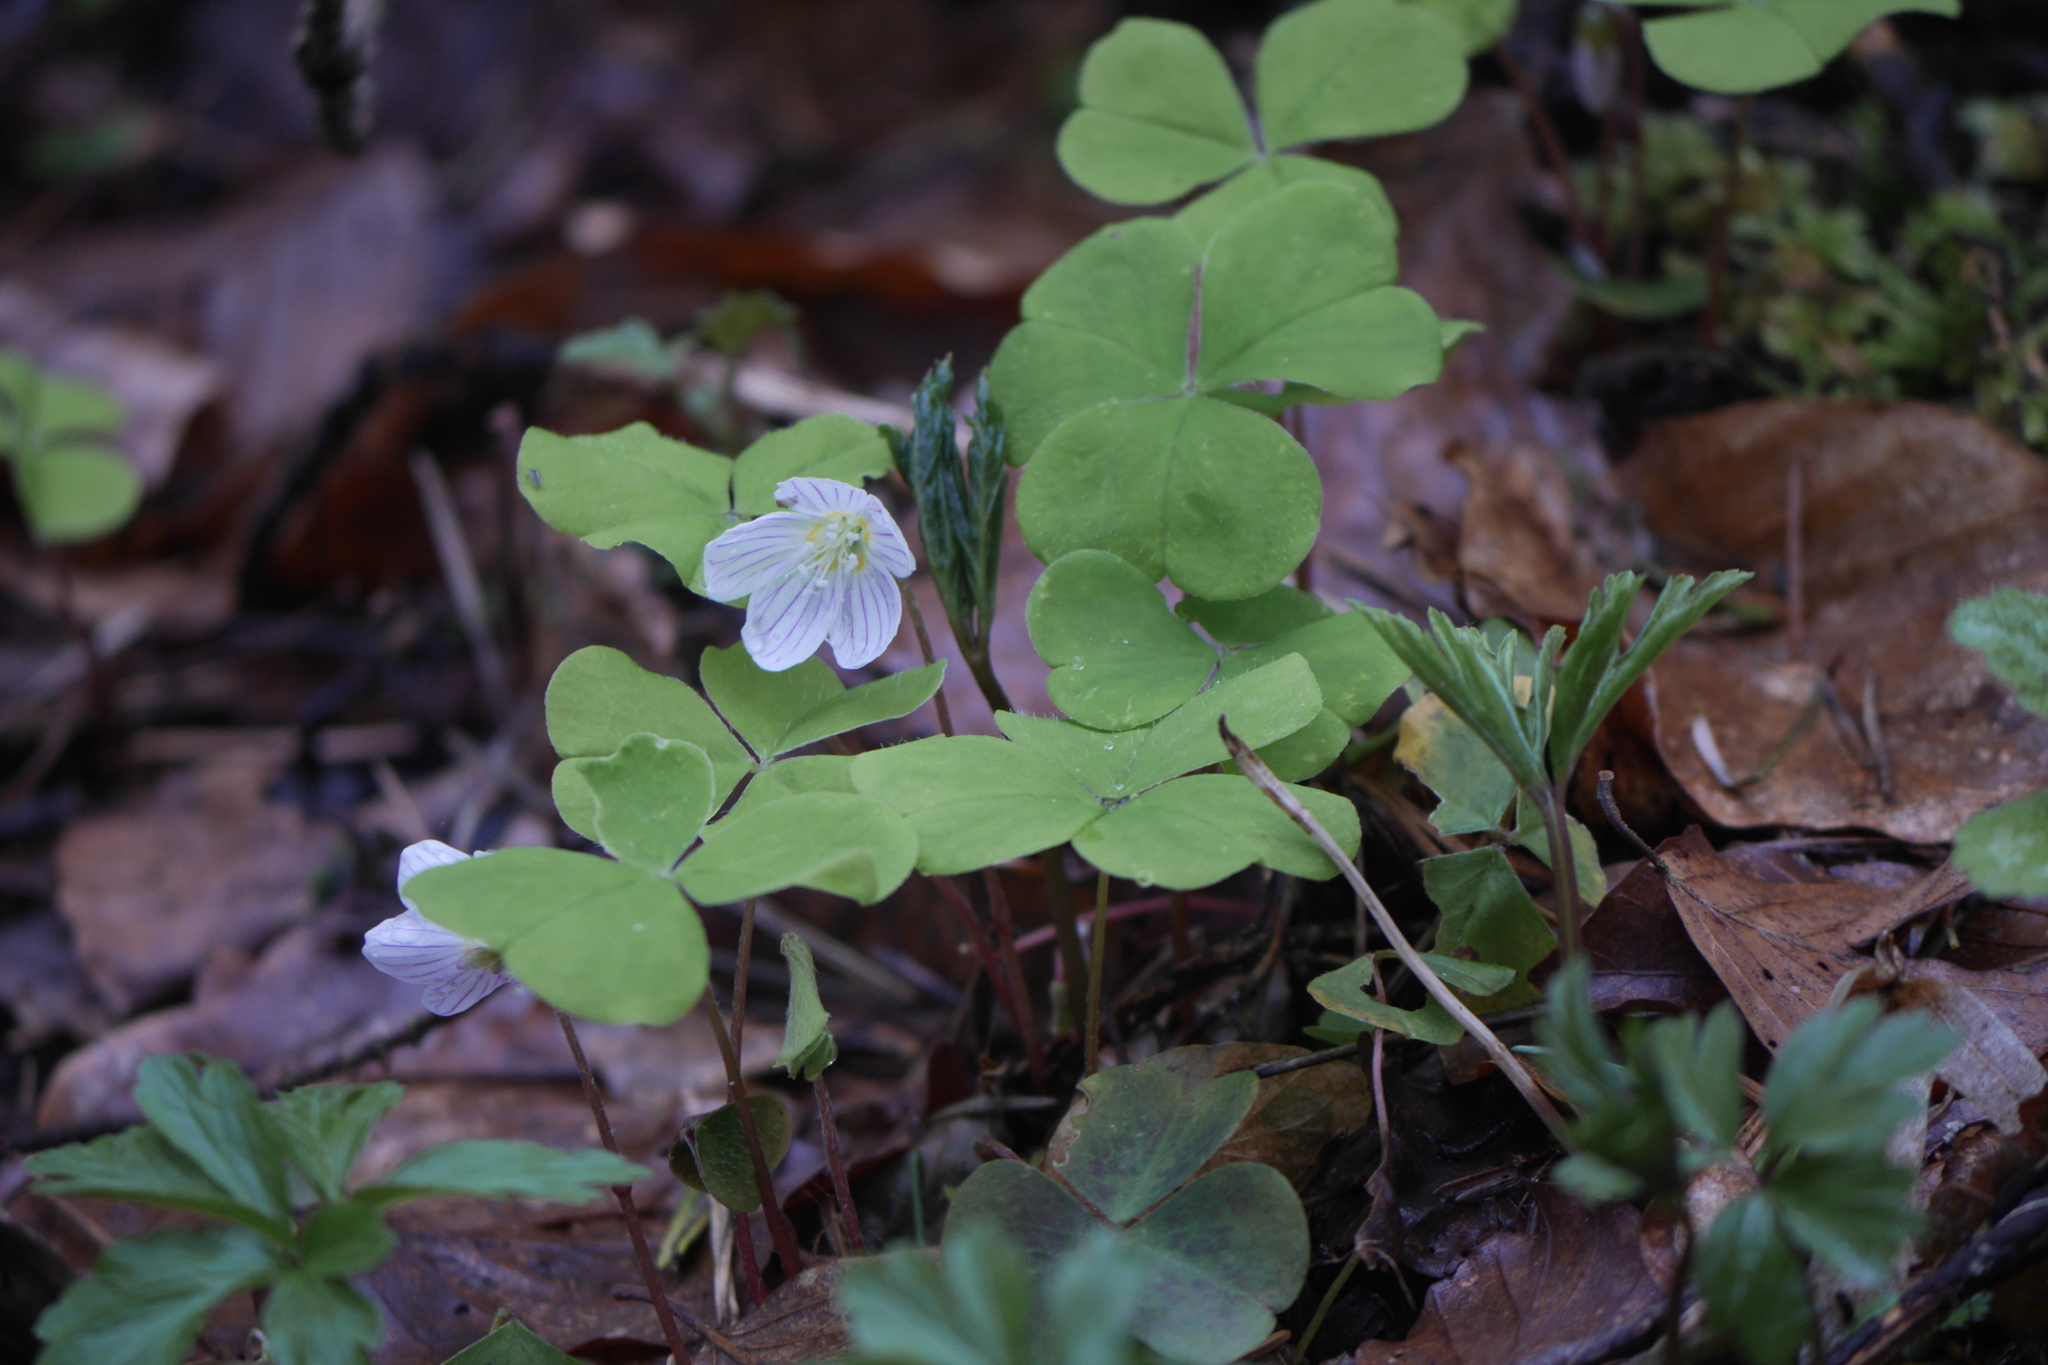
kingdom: Plantae
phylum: Tracheophyta
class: Magnoliopsida
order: Oxalidales
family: Oxalidaceae
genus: Oxalis
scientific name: Oxalis acetosella
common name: Wood-sorrel
